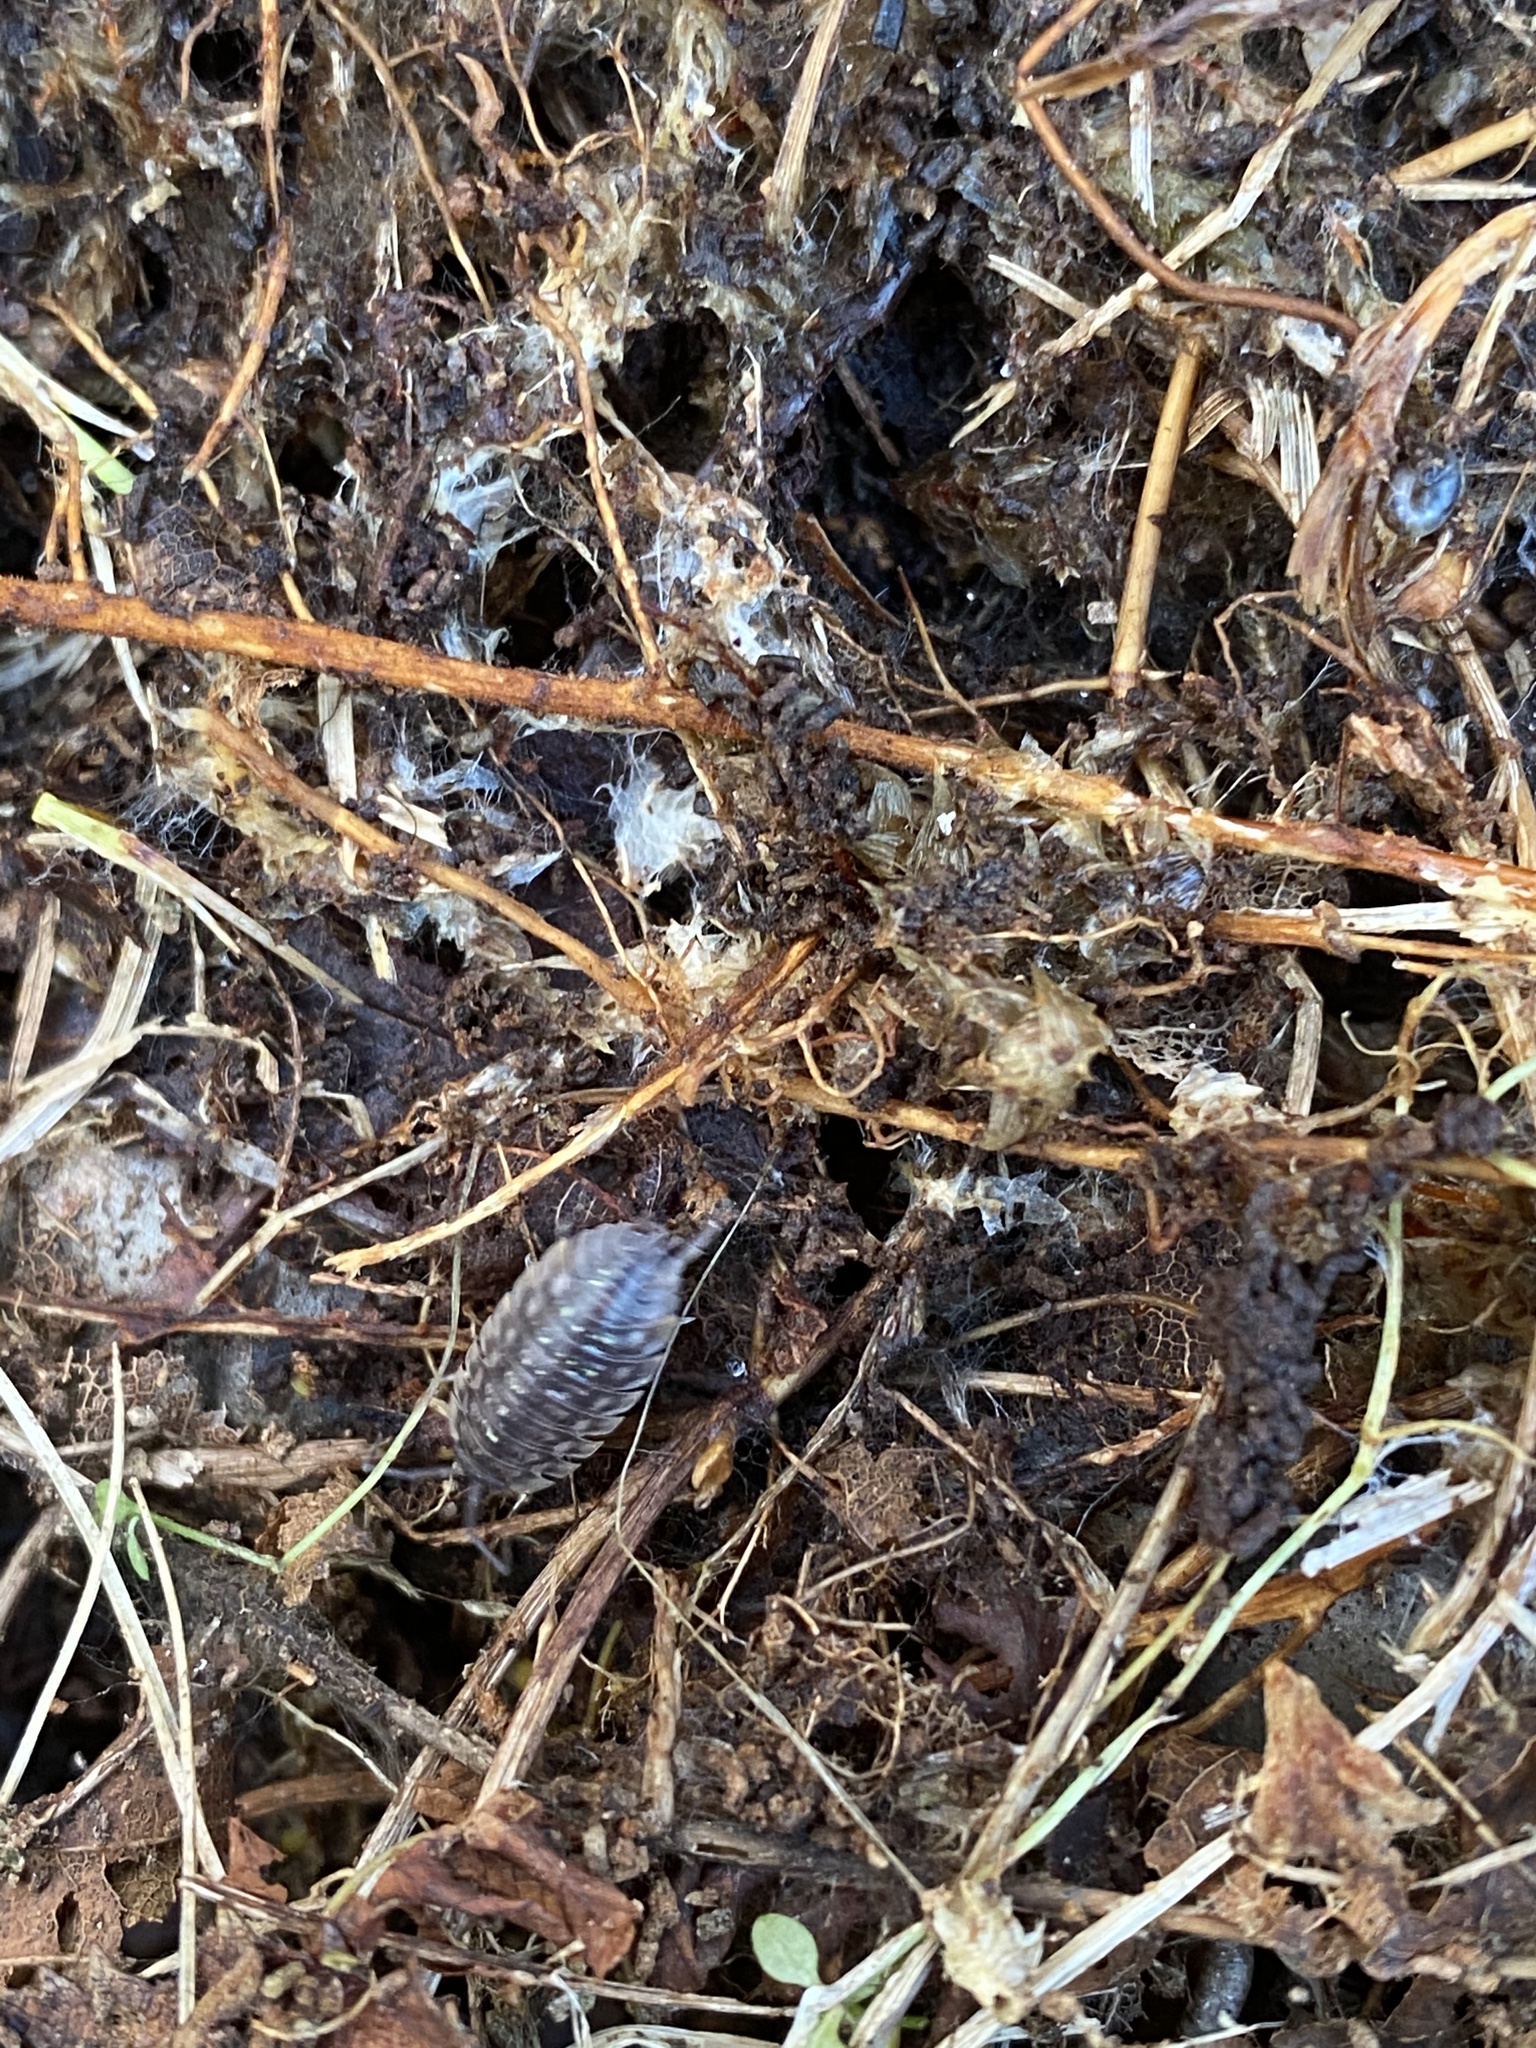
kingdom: Animalia
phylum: Arthropoda
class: Malacostraca
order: Isopoda
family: Oniscidae
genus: Oniscus
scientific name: Oniscus asellus
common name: Common shiny woodlouse
